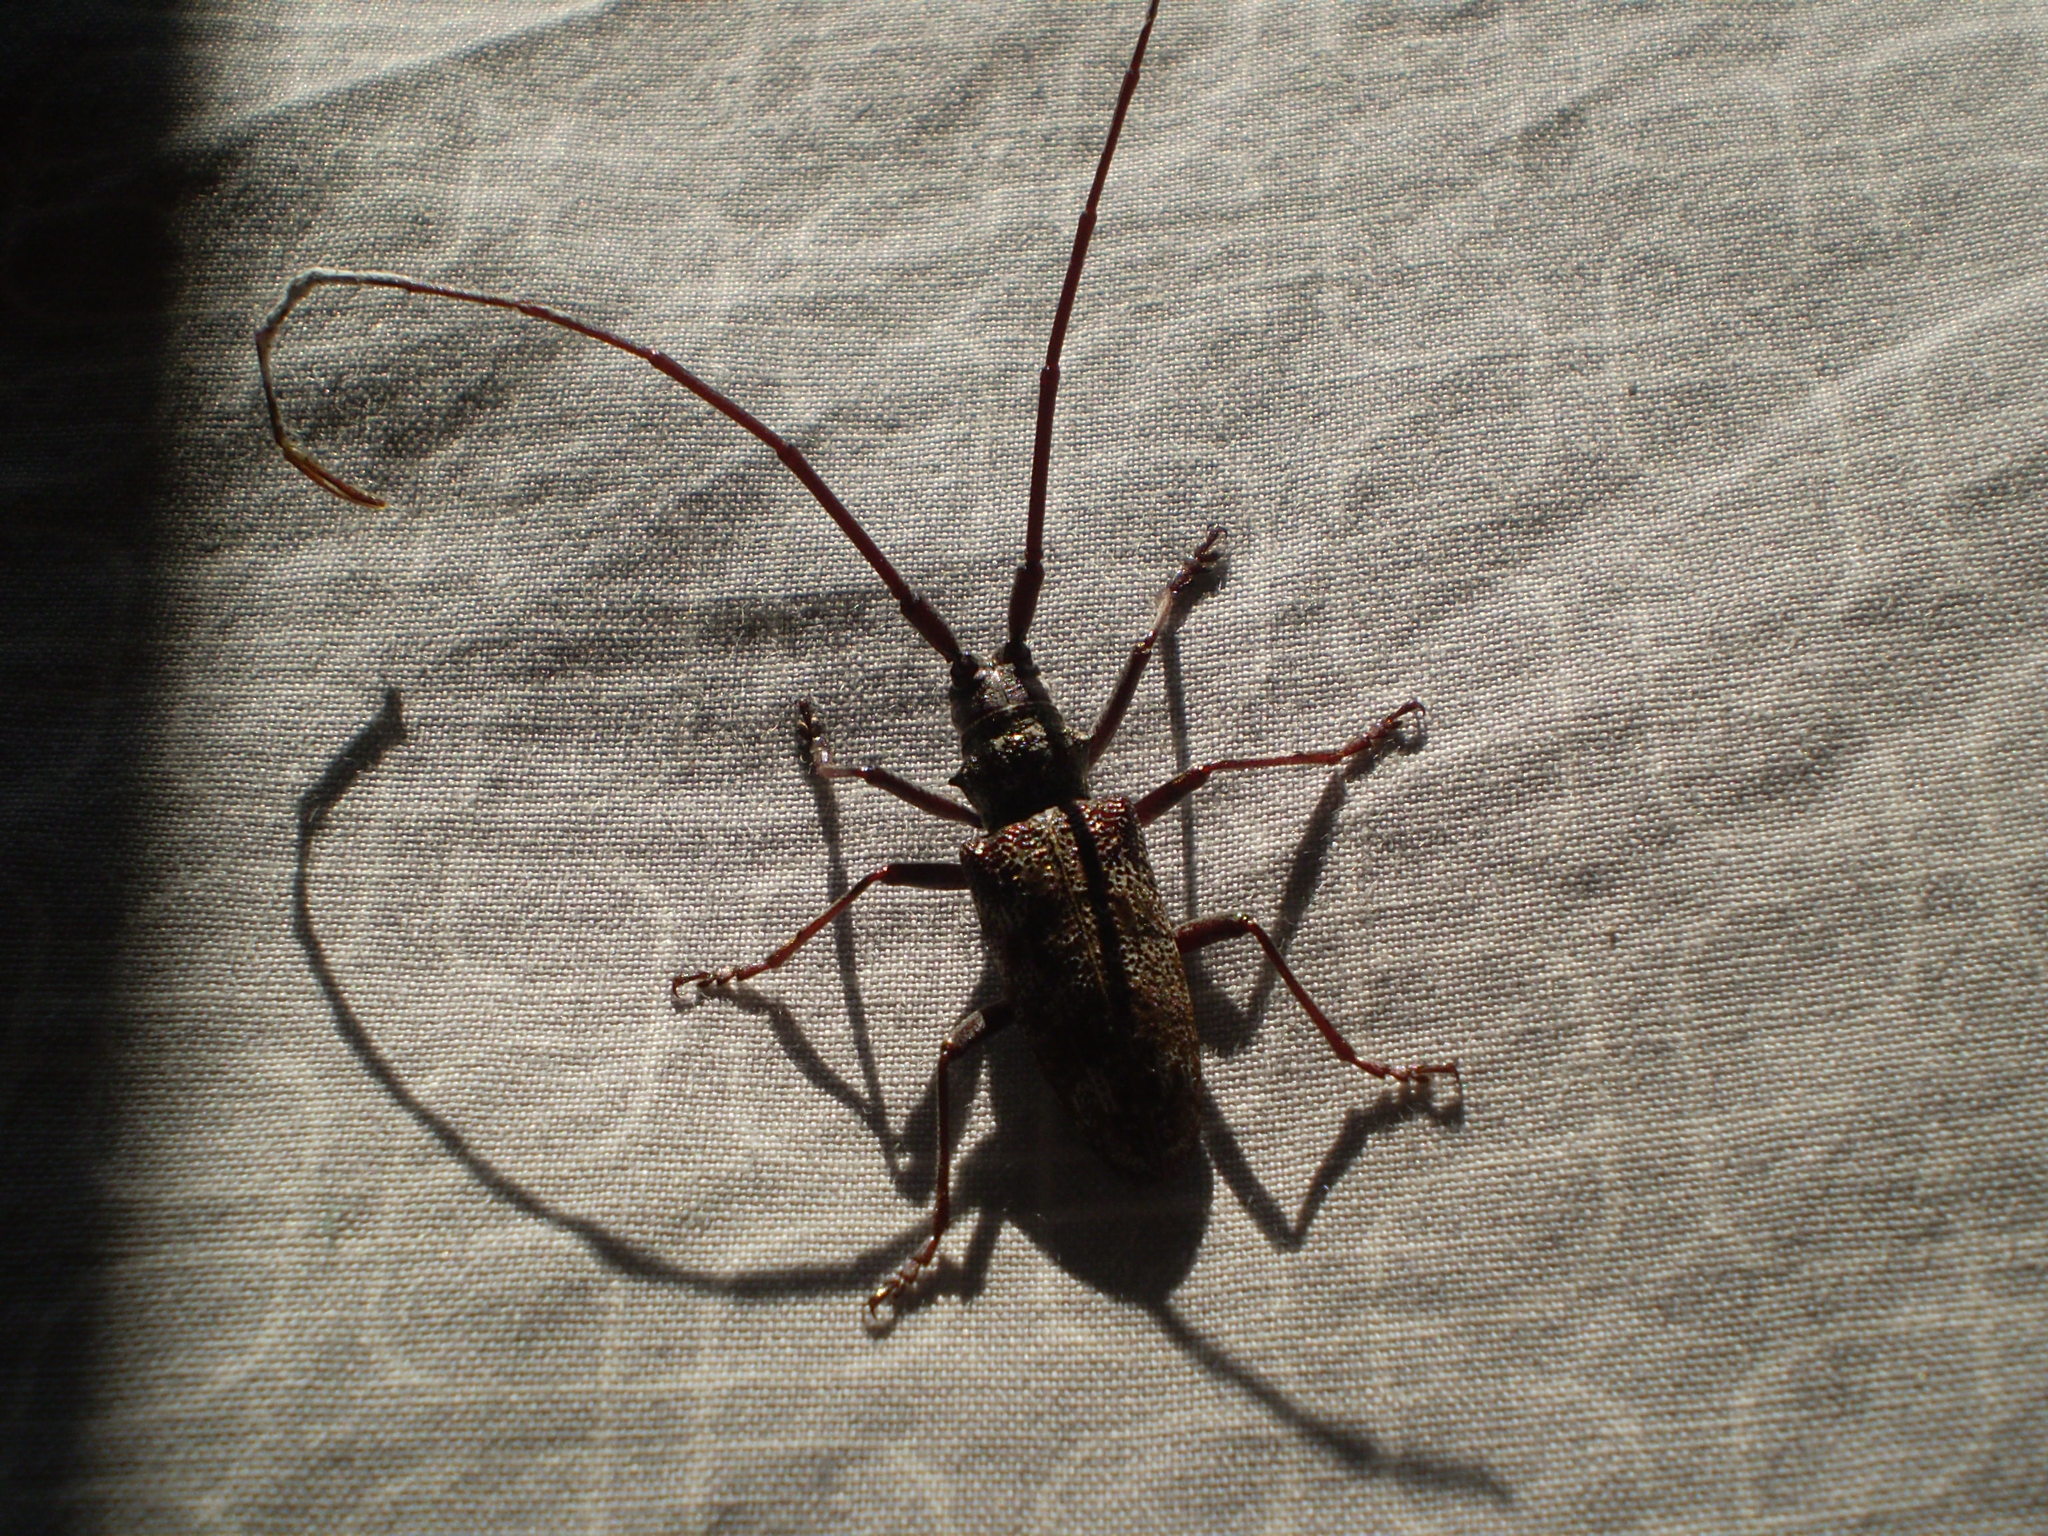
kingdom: Animalia
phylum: Arthropoda
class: Insecta
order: Coleoptera
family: Cerambycidae
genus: Monochamus
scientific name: Monochamus scutellatus
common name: White-spotted sawyer beetle
